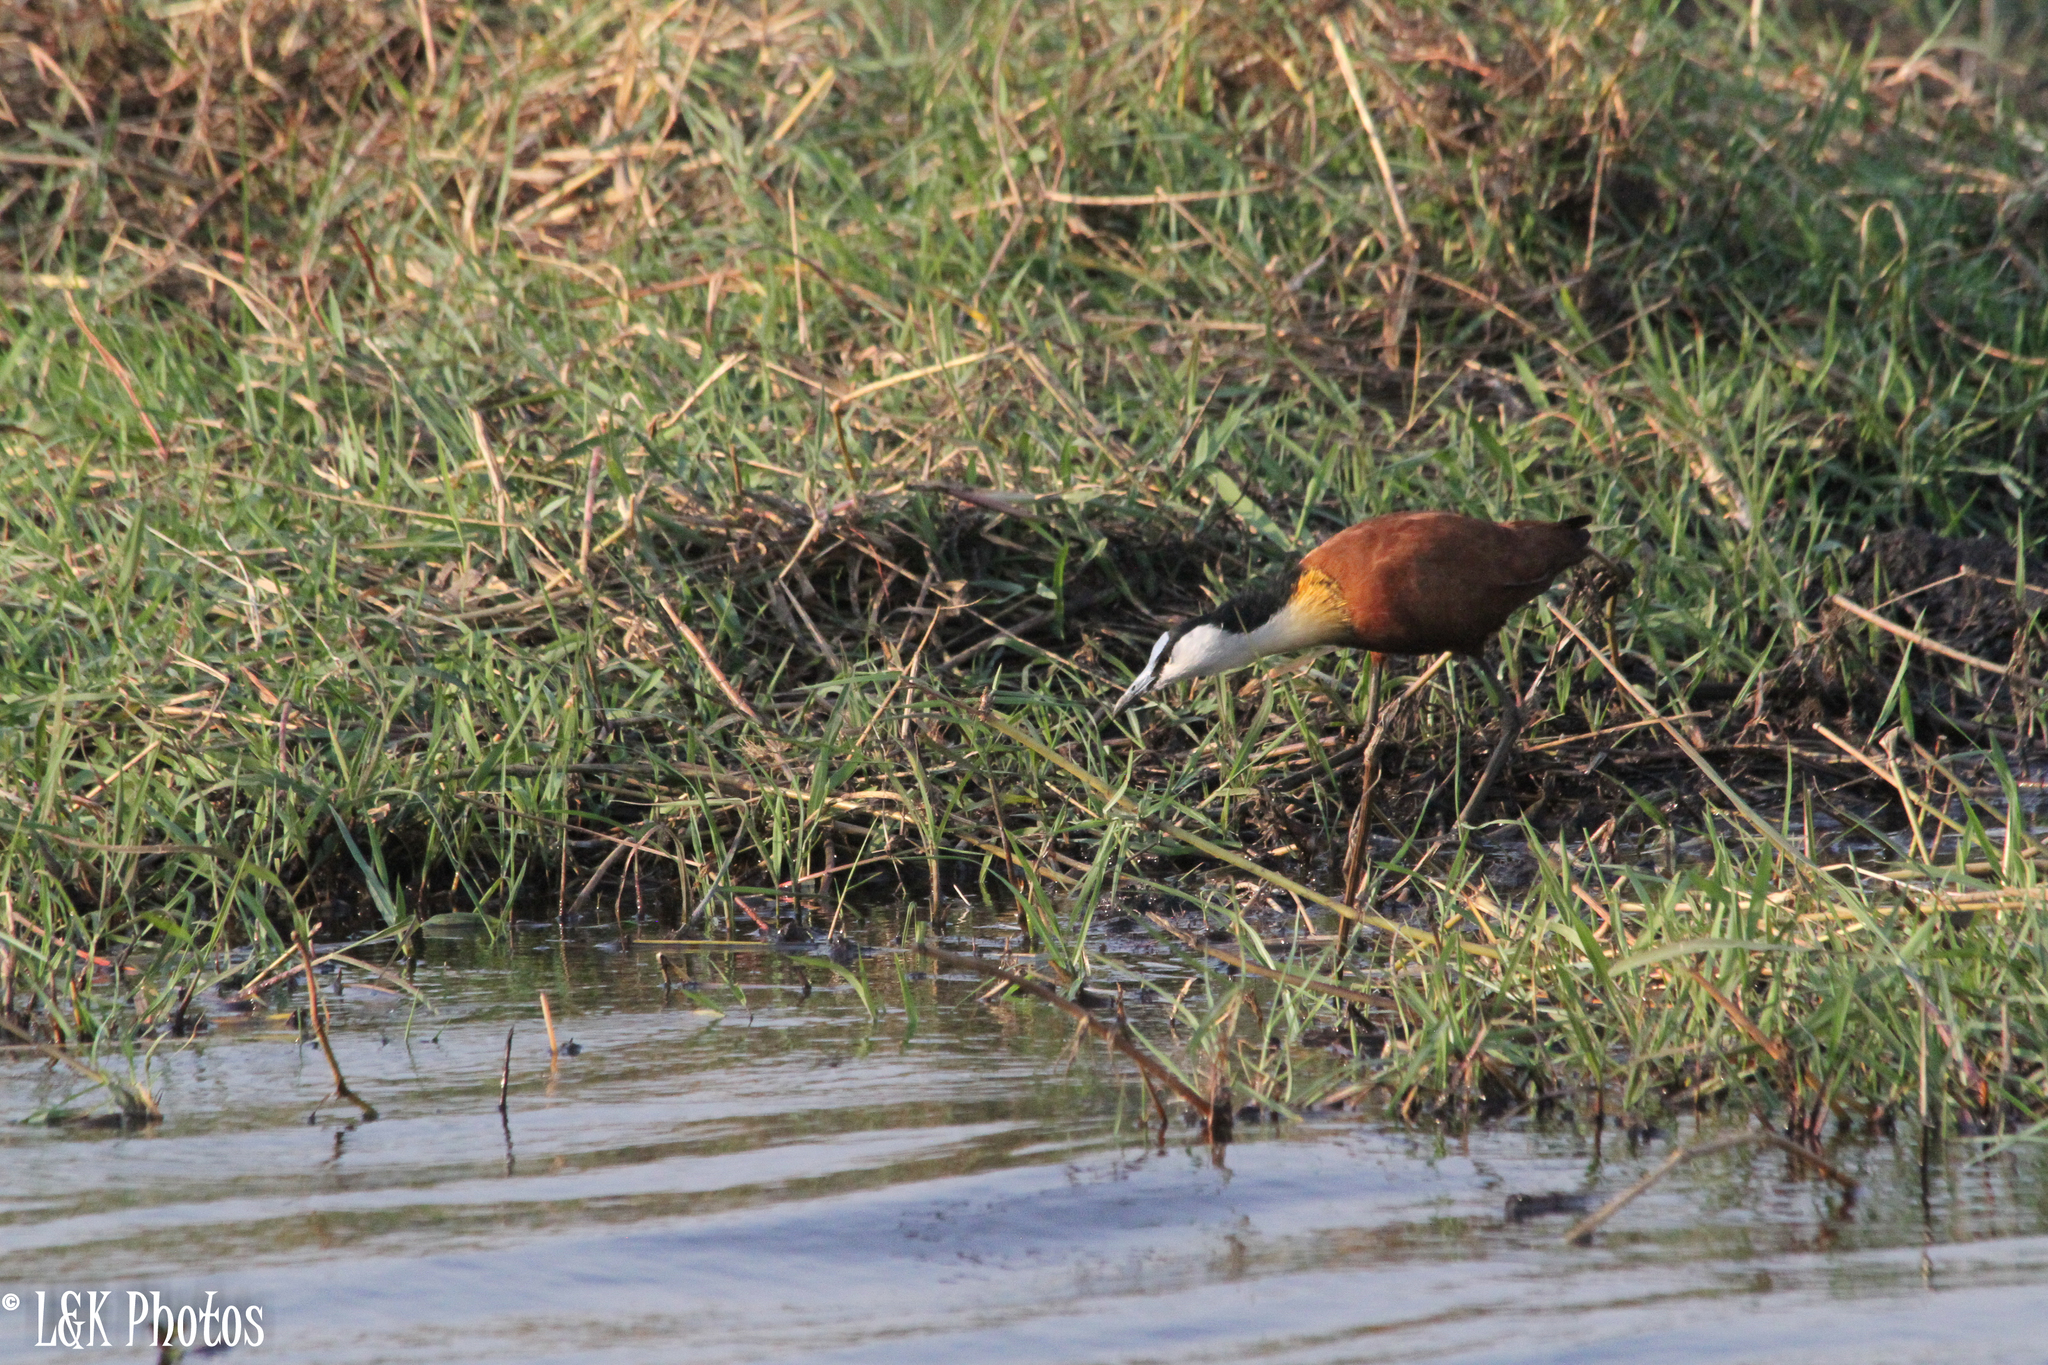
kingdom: Animalia
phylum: Chordata
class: Aves
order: Charadriiformes
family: Jacanidae
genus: Actophilornis
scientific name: Actophilornis africanus
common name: African jacana
